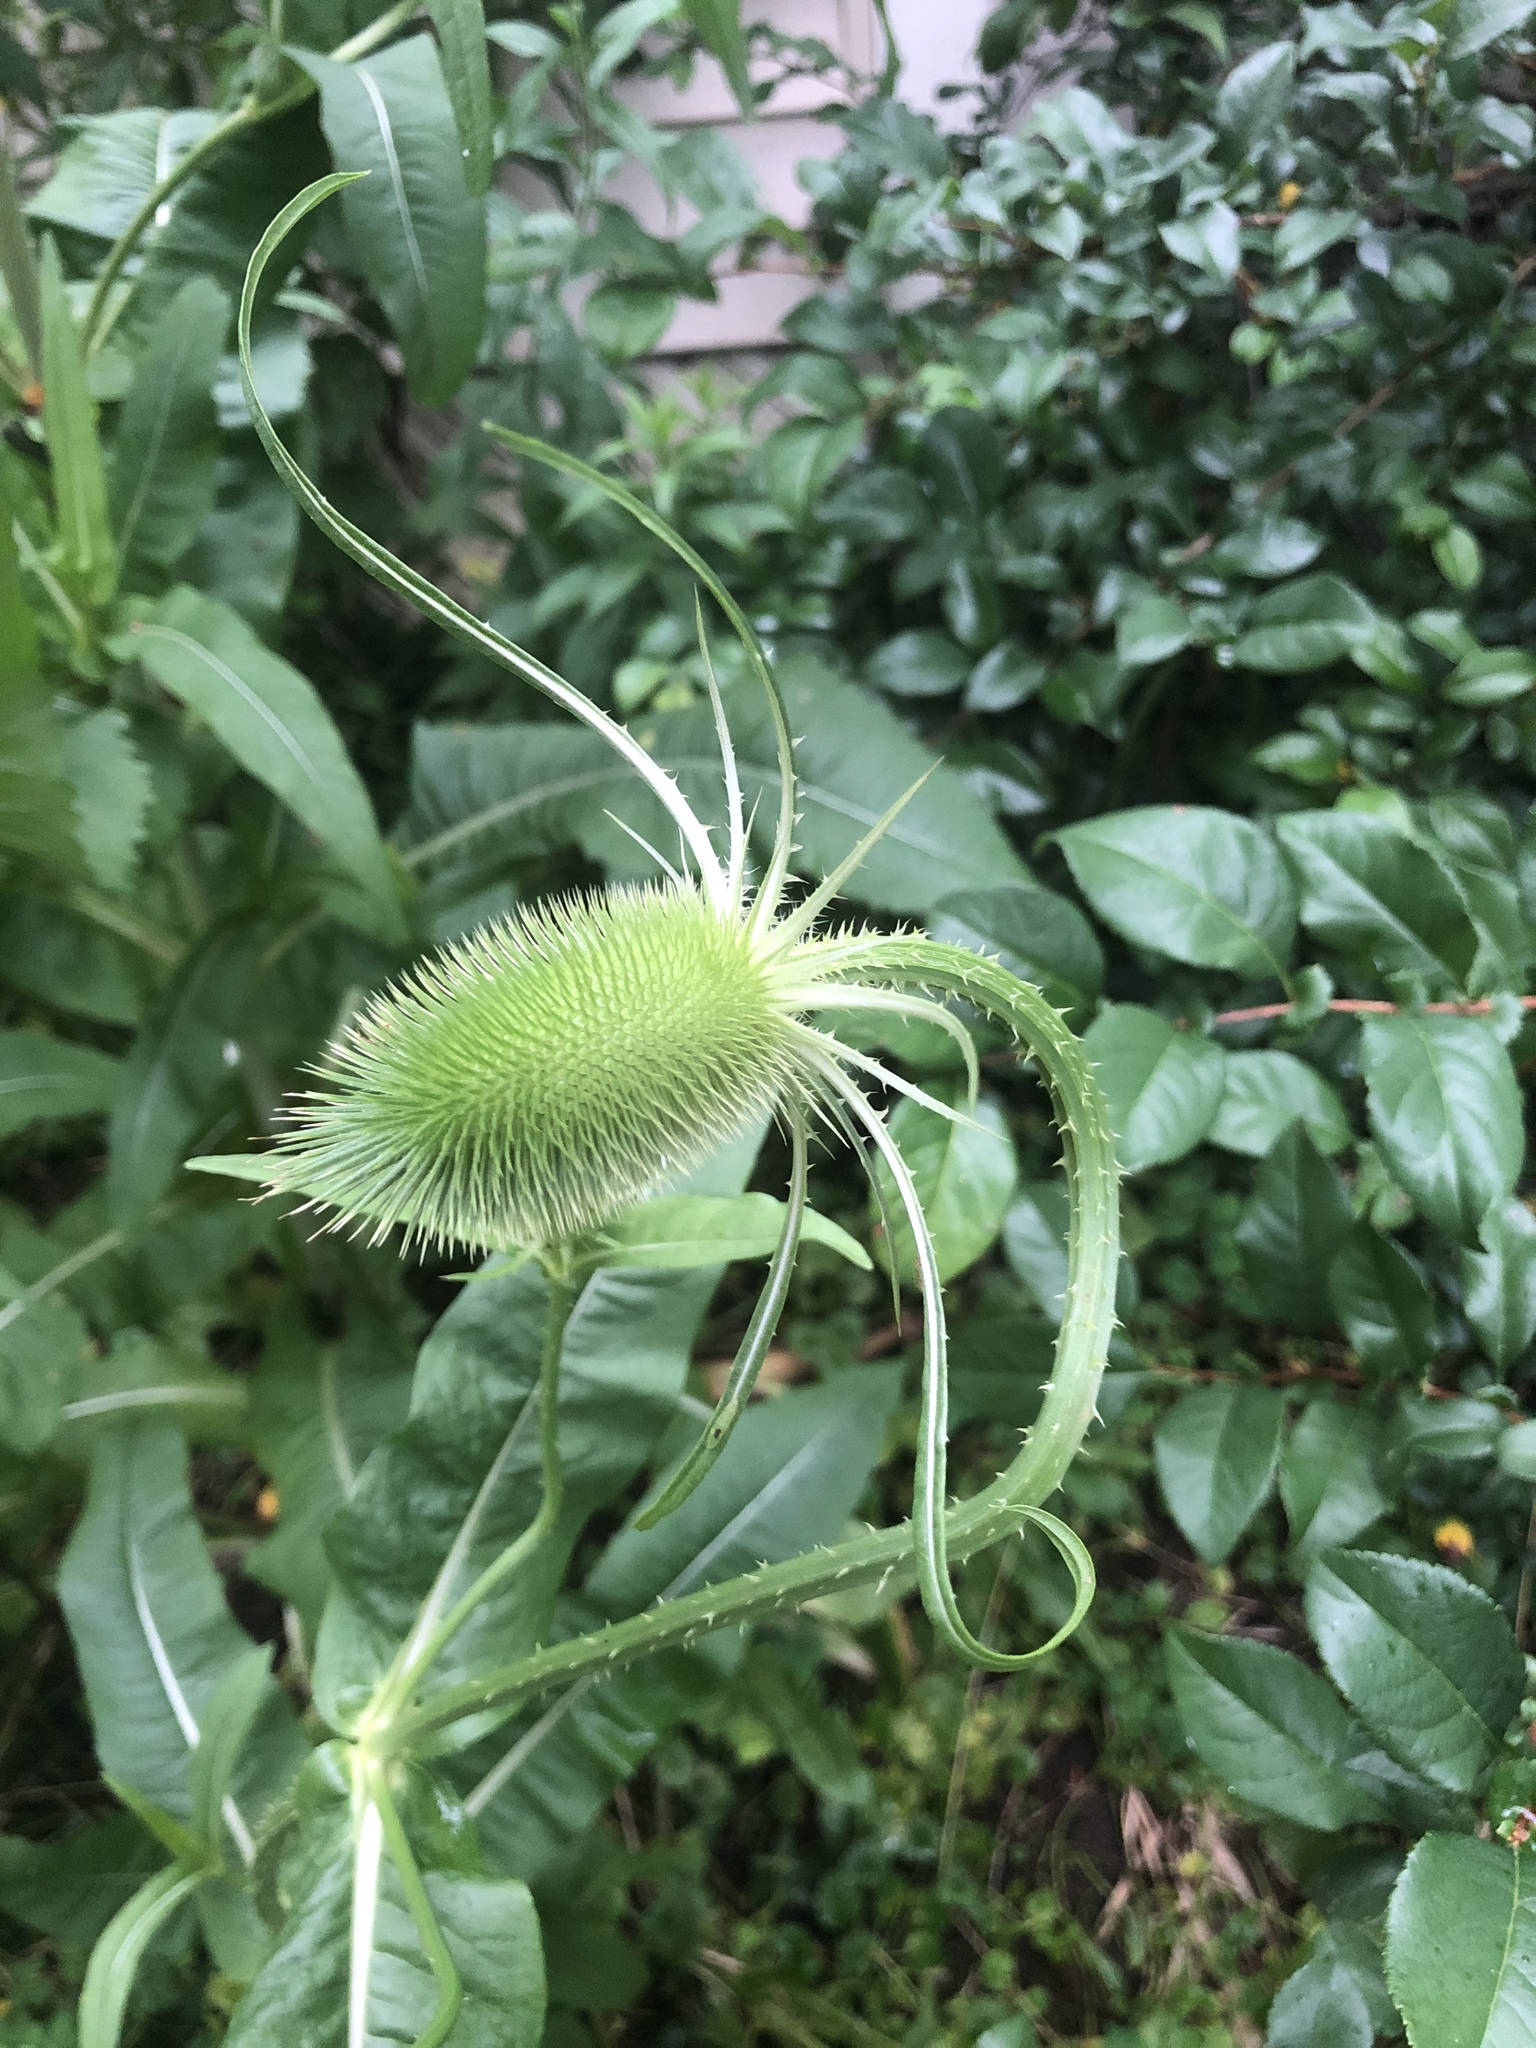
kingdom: Plantae
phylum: Tracheophyta
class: Magnoliopsida
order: Dipsacales
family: Caprifoliaceae
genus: Dipsacus
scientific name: Dipsacus fullonum
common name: Teasel
